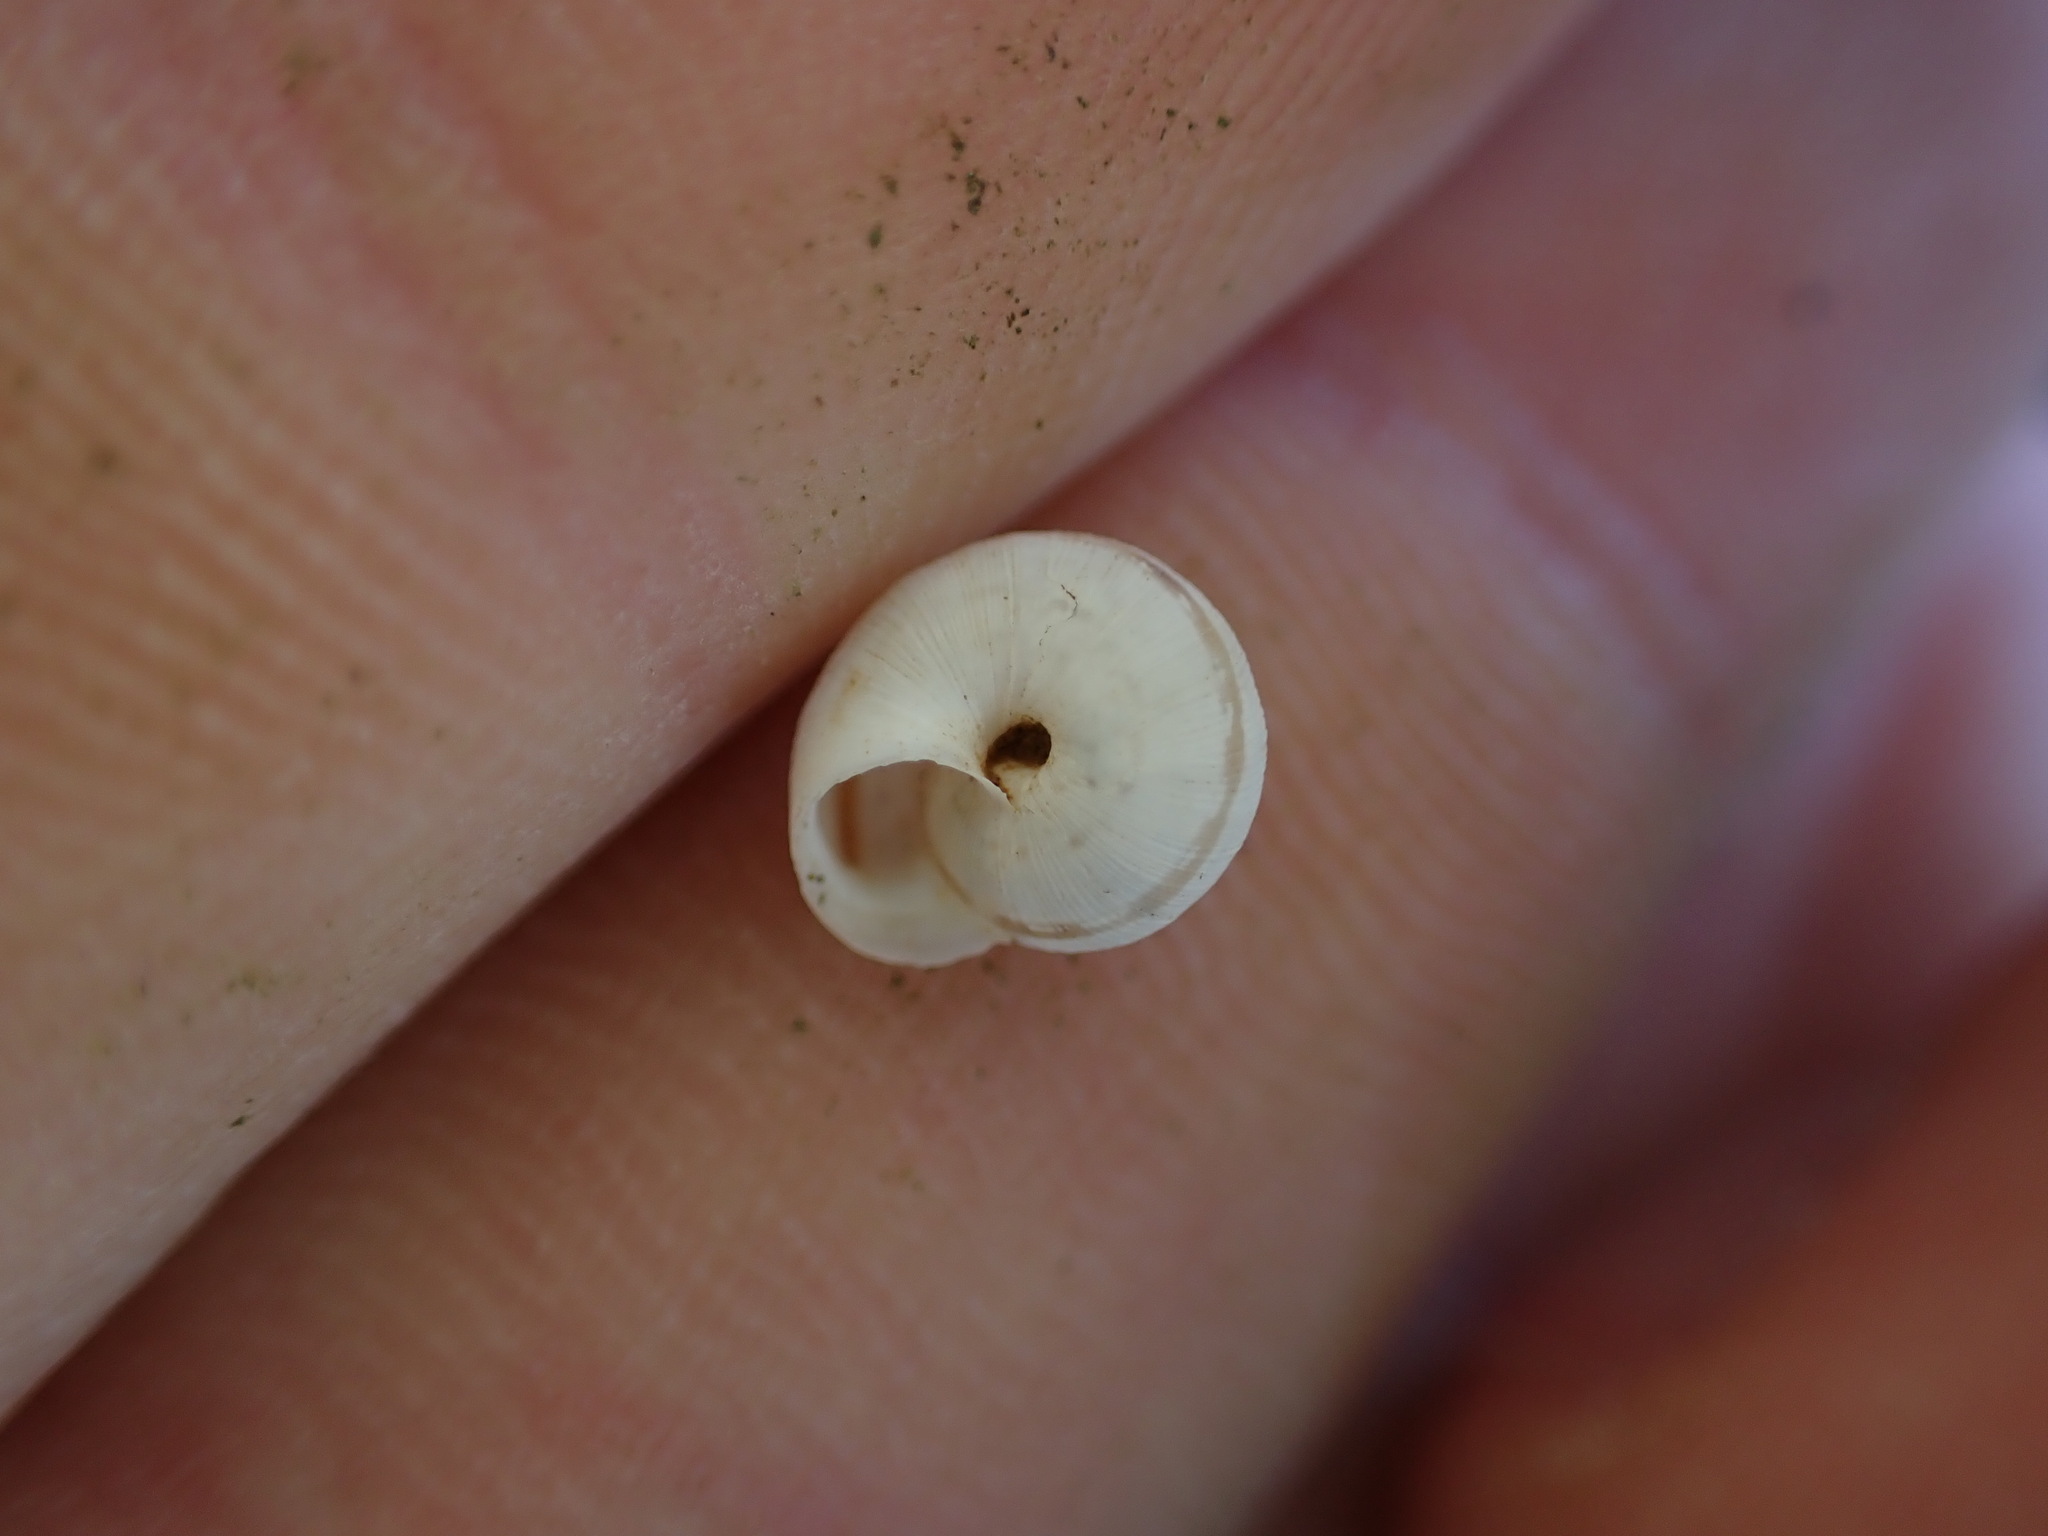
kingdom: Animalia
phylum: Mollusca
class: Gastropoda
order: Stylommatophora
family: Geomitridae
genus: Candidula
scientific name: Candidula unifasciata
